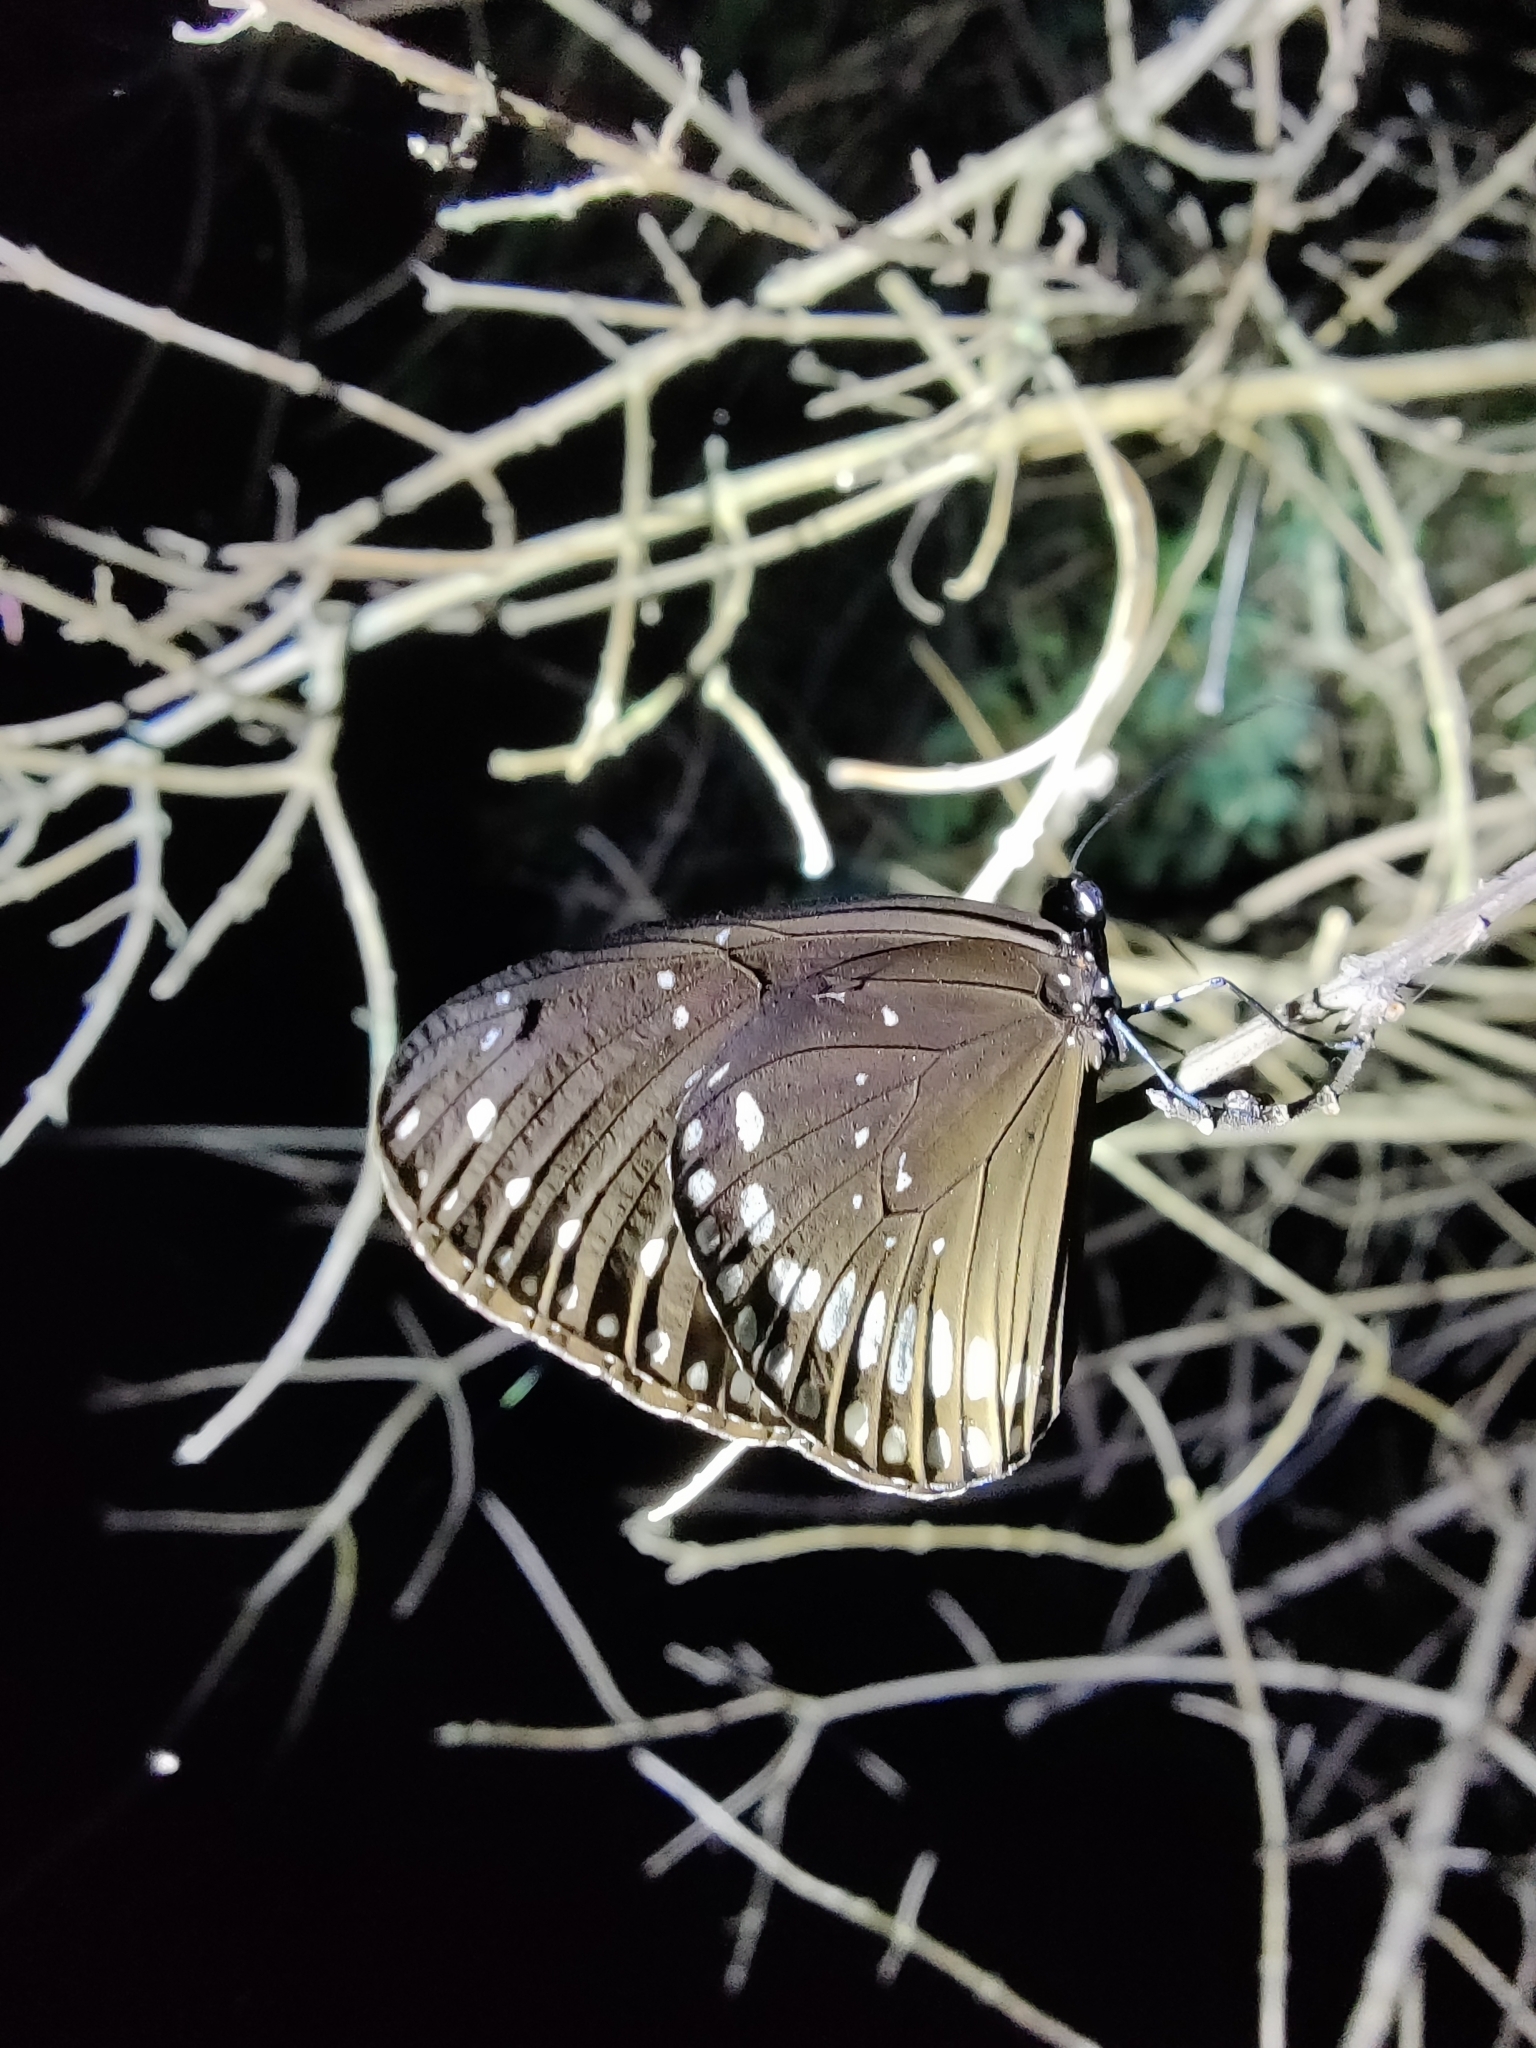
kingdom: Animalia
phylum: Arthropoda
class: Insecta
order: Lepidoptera
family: Nymphalidae
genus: Euploea
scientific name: Euploea sylvester
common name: Double-branded crow butterfly
